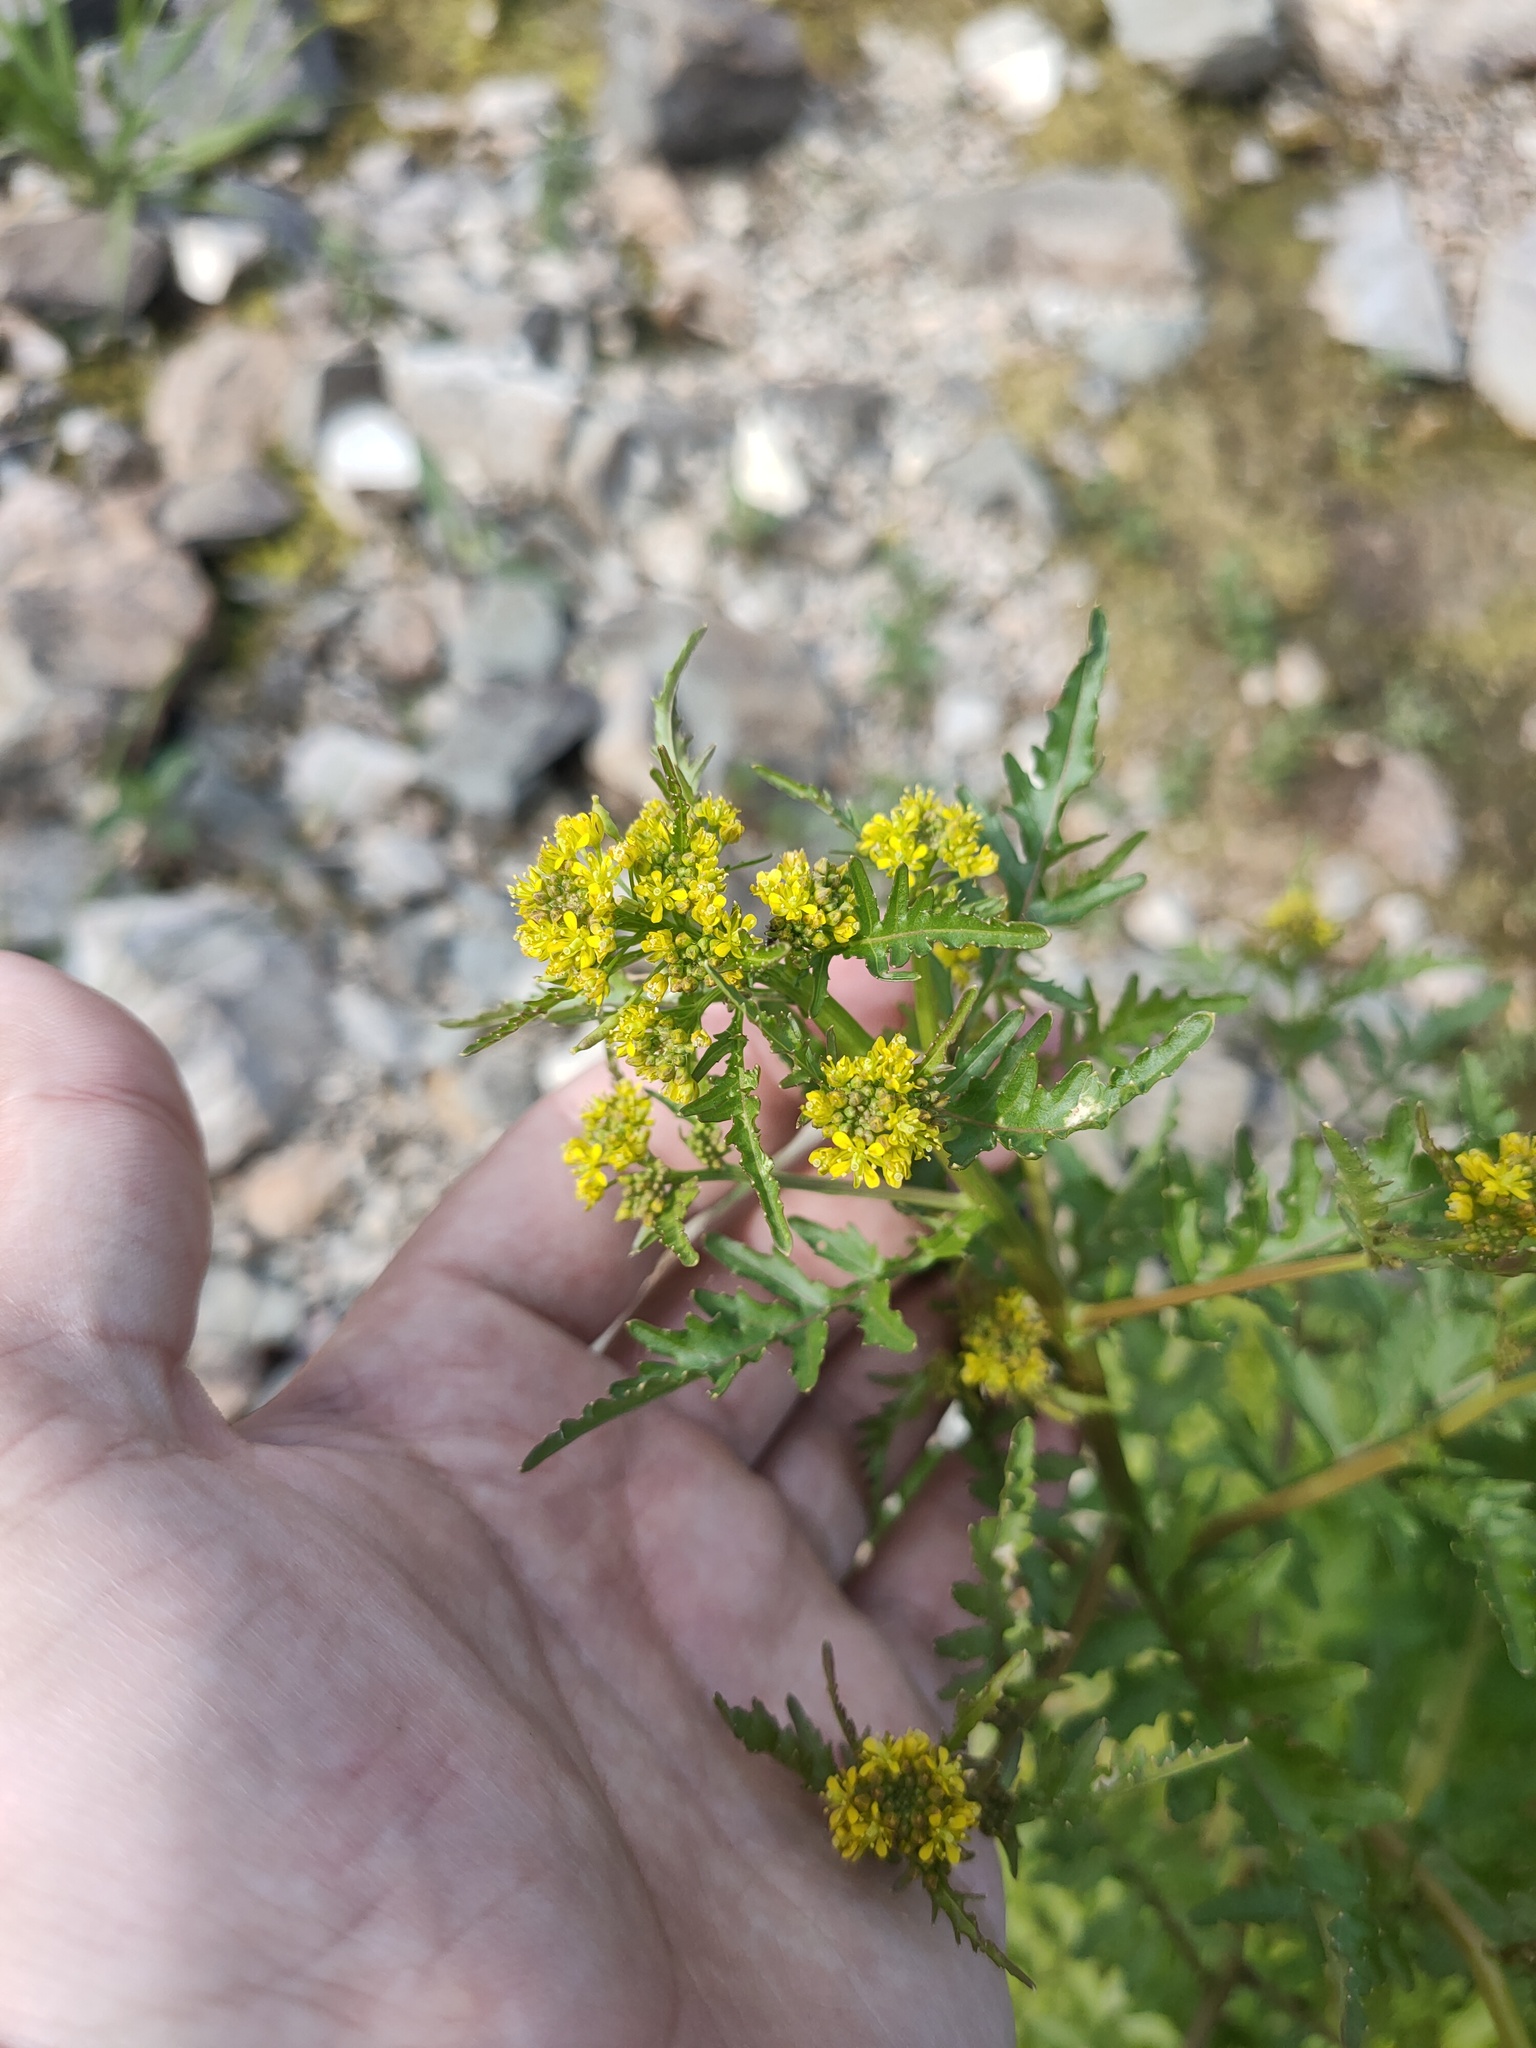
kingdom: Plantae
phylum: Tracheophyta
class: Magnoliopsida
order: Brassicales
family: Brassicaceae
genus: Rorippa
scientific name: Rorippa palustris
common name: Marsh yellow-cress
